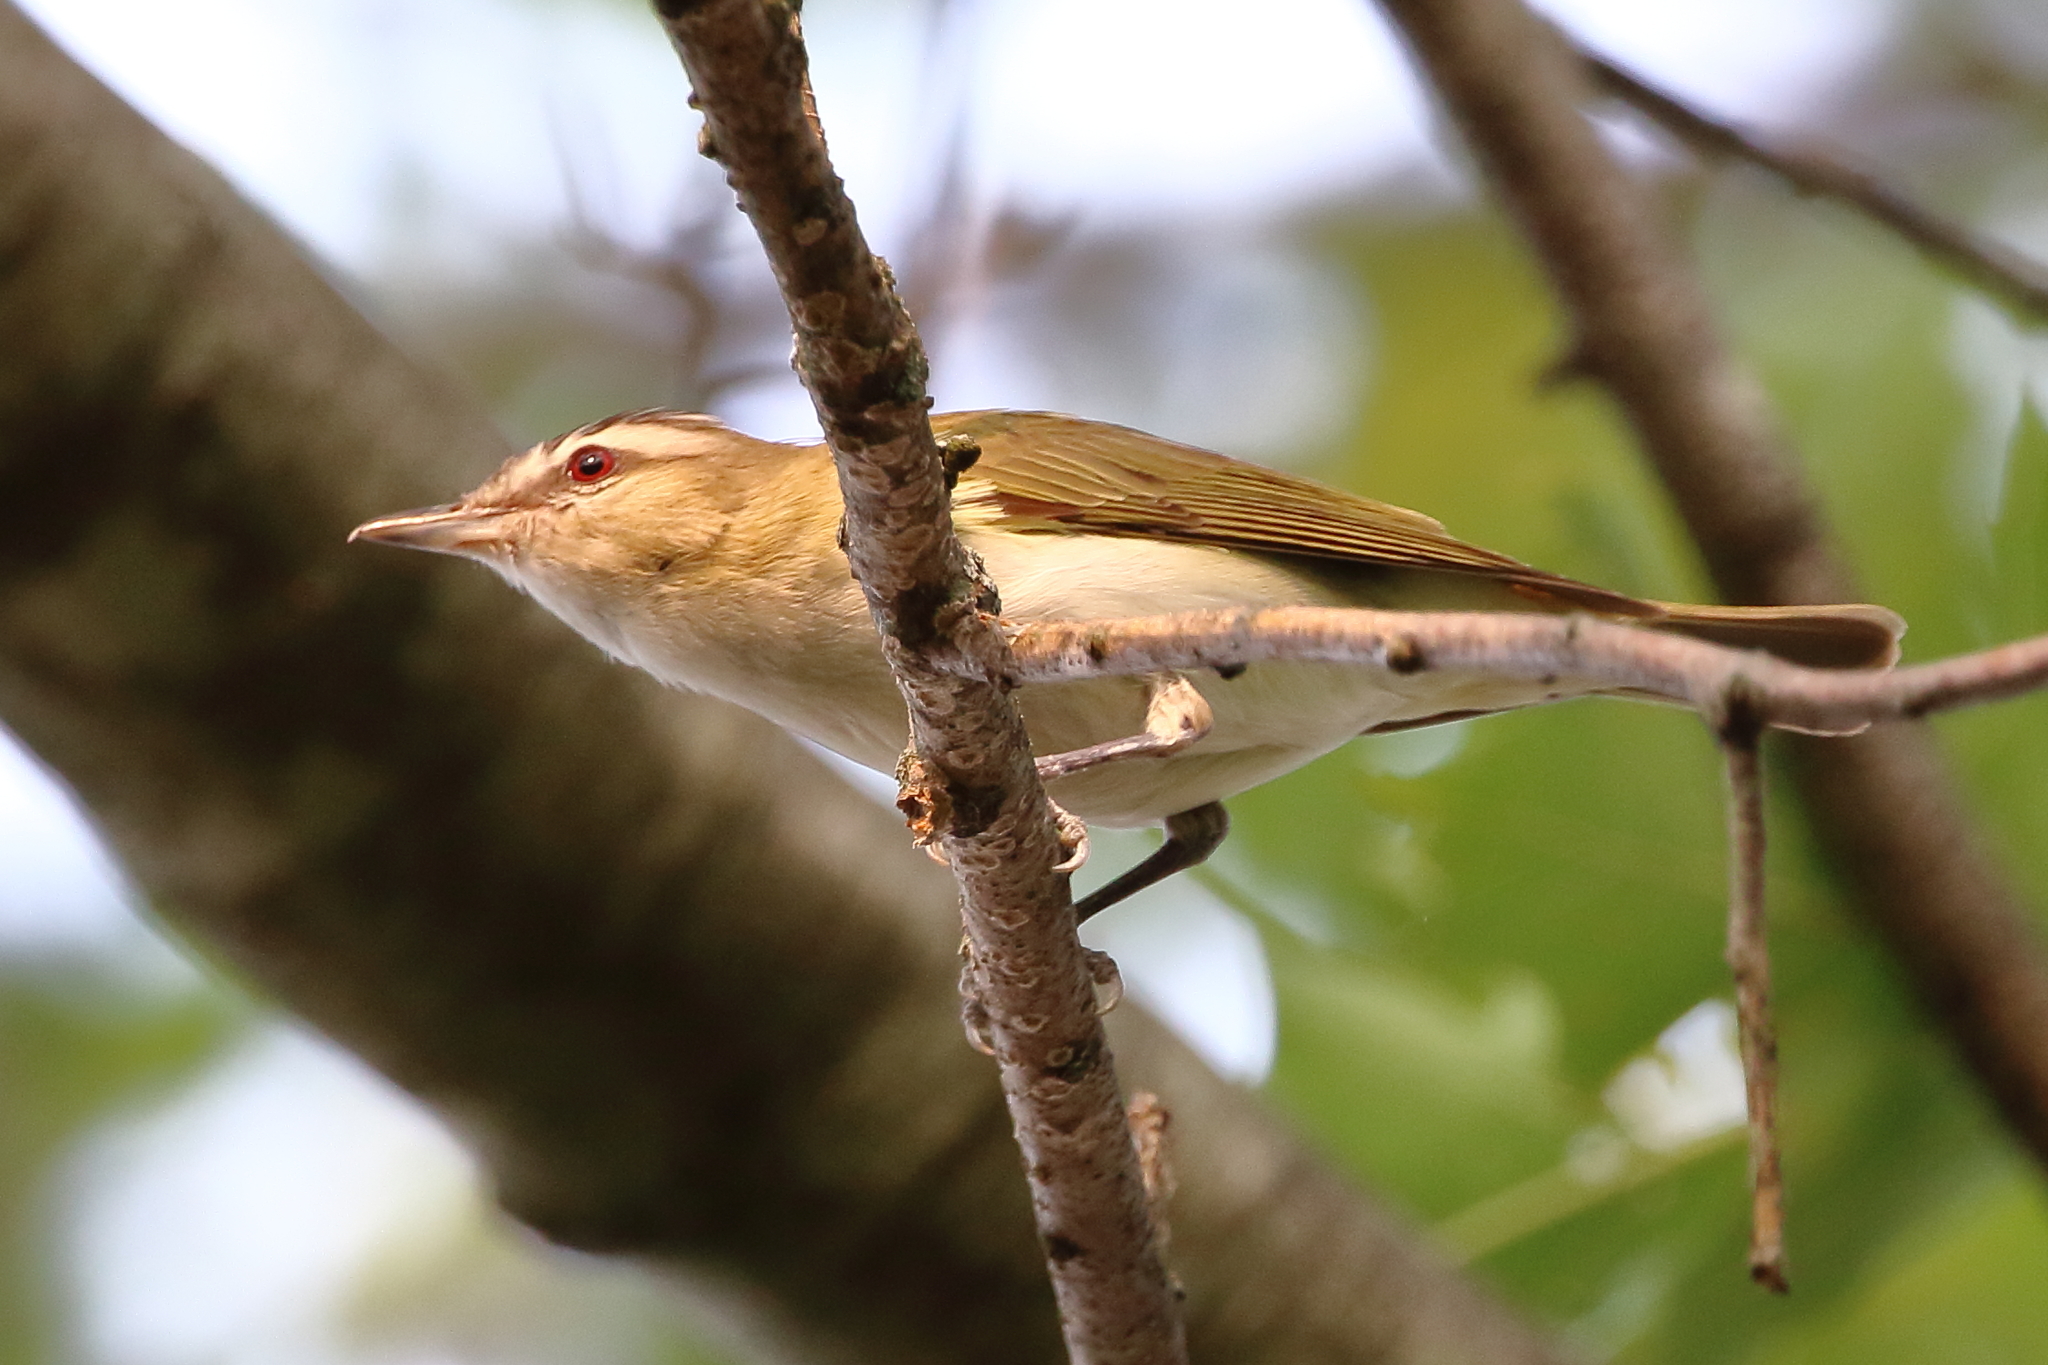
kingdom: Animalia
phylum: Chordata
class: Aves
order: Passeriformes
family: Vireonidae
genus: Vireo
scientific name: Vireo olivaceus
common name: Red-eyed vireo
